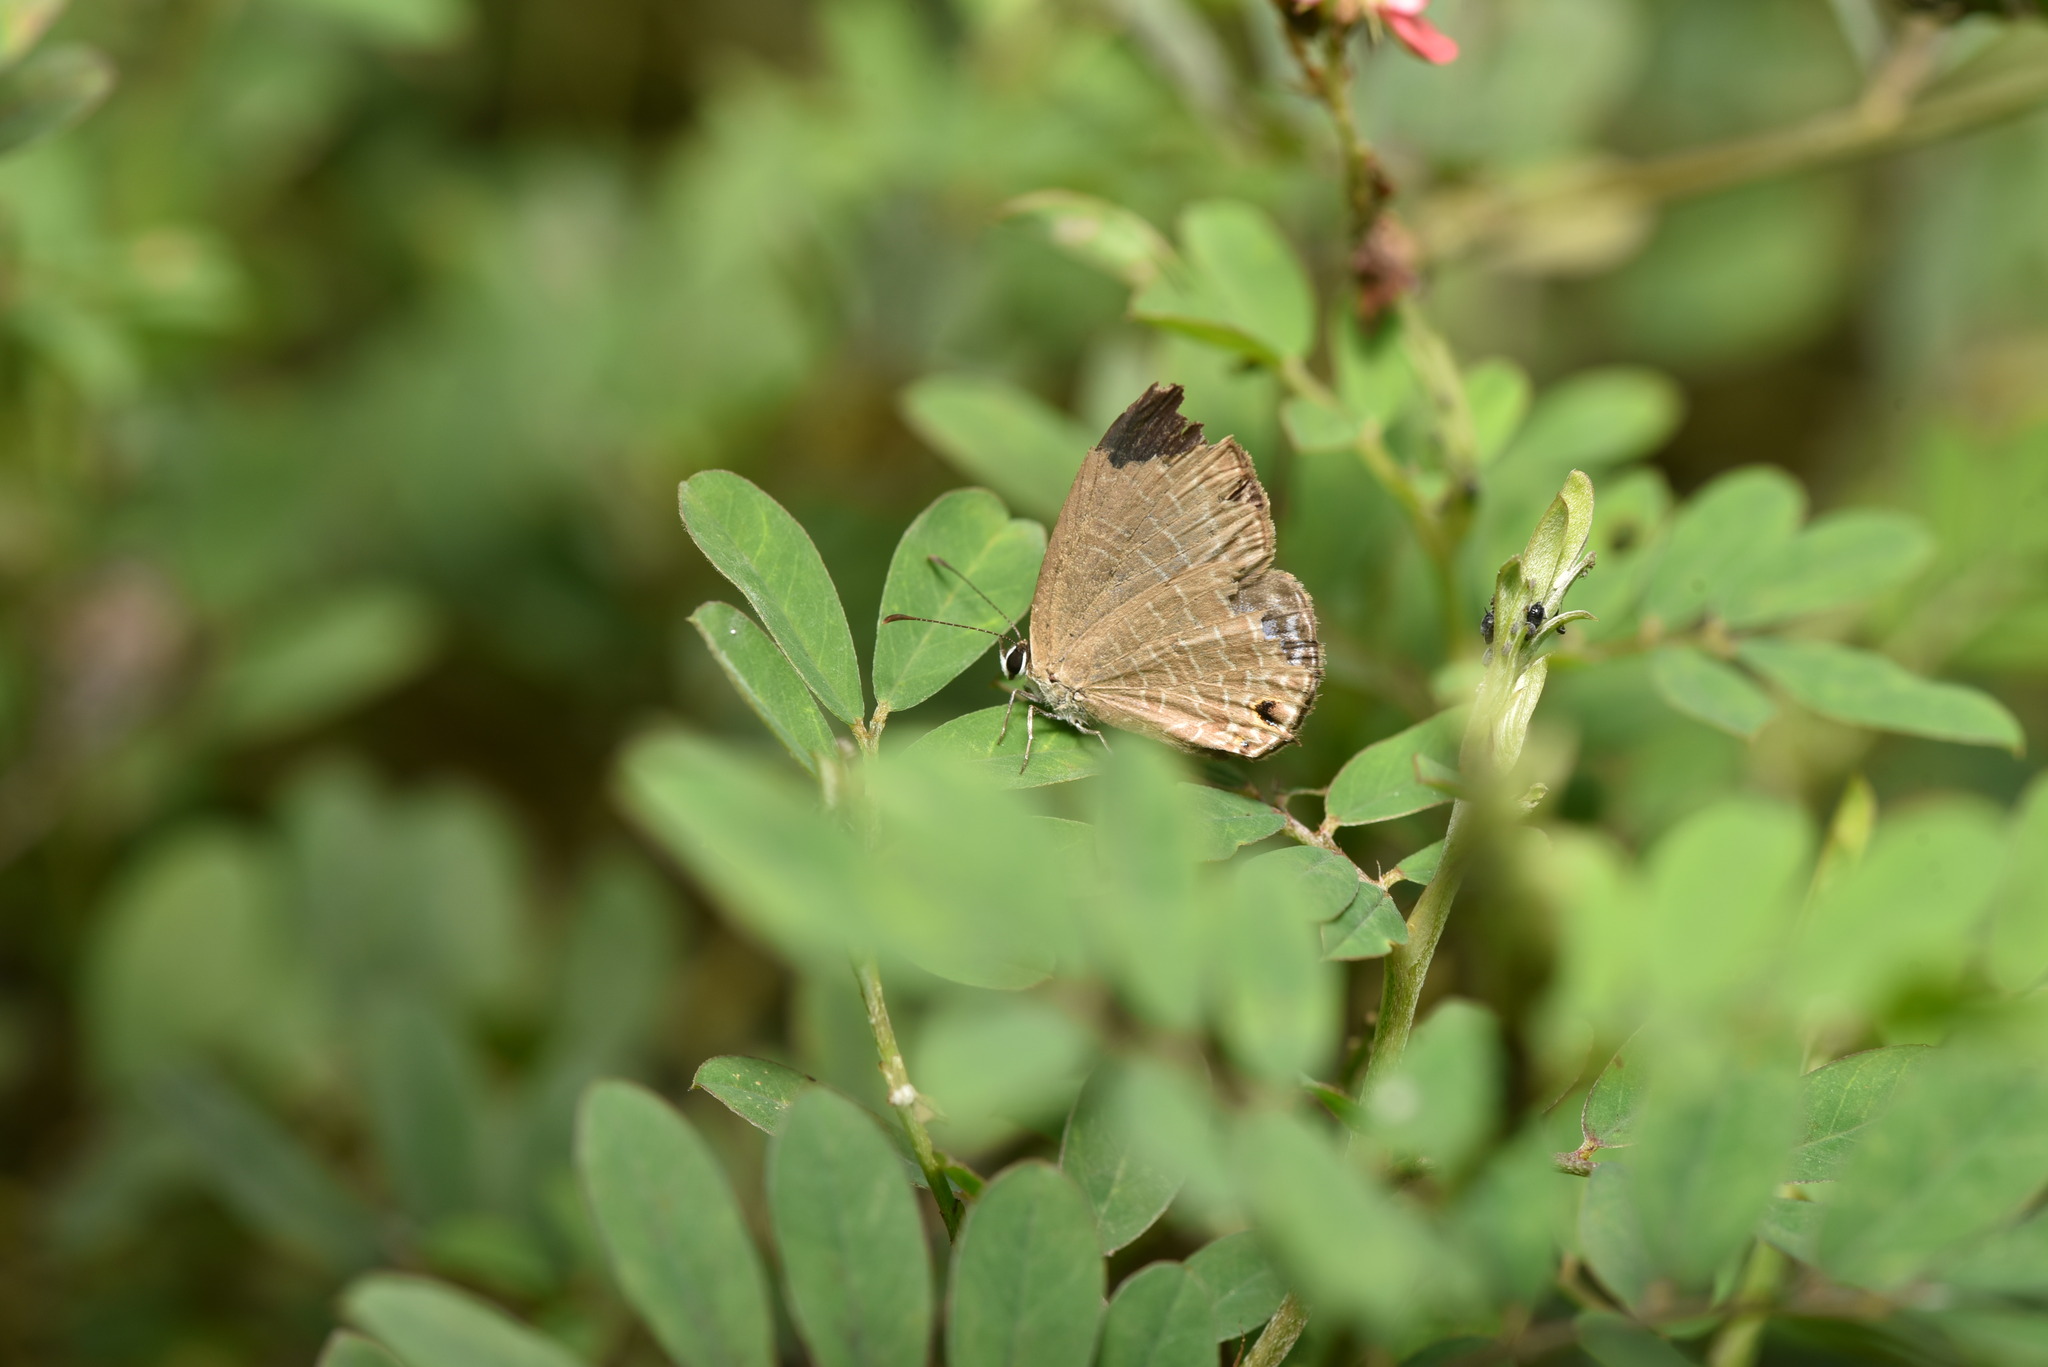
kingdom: Animalia
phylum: Arthropoda
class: Insecta
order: Lepidoptera
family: Lycaenidae
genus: Jamides
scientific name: Jamides bochus
